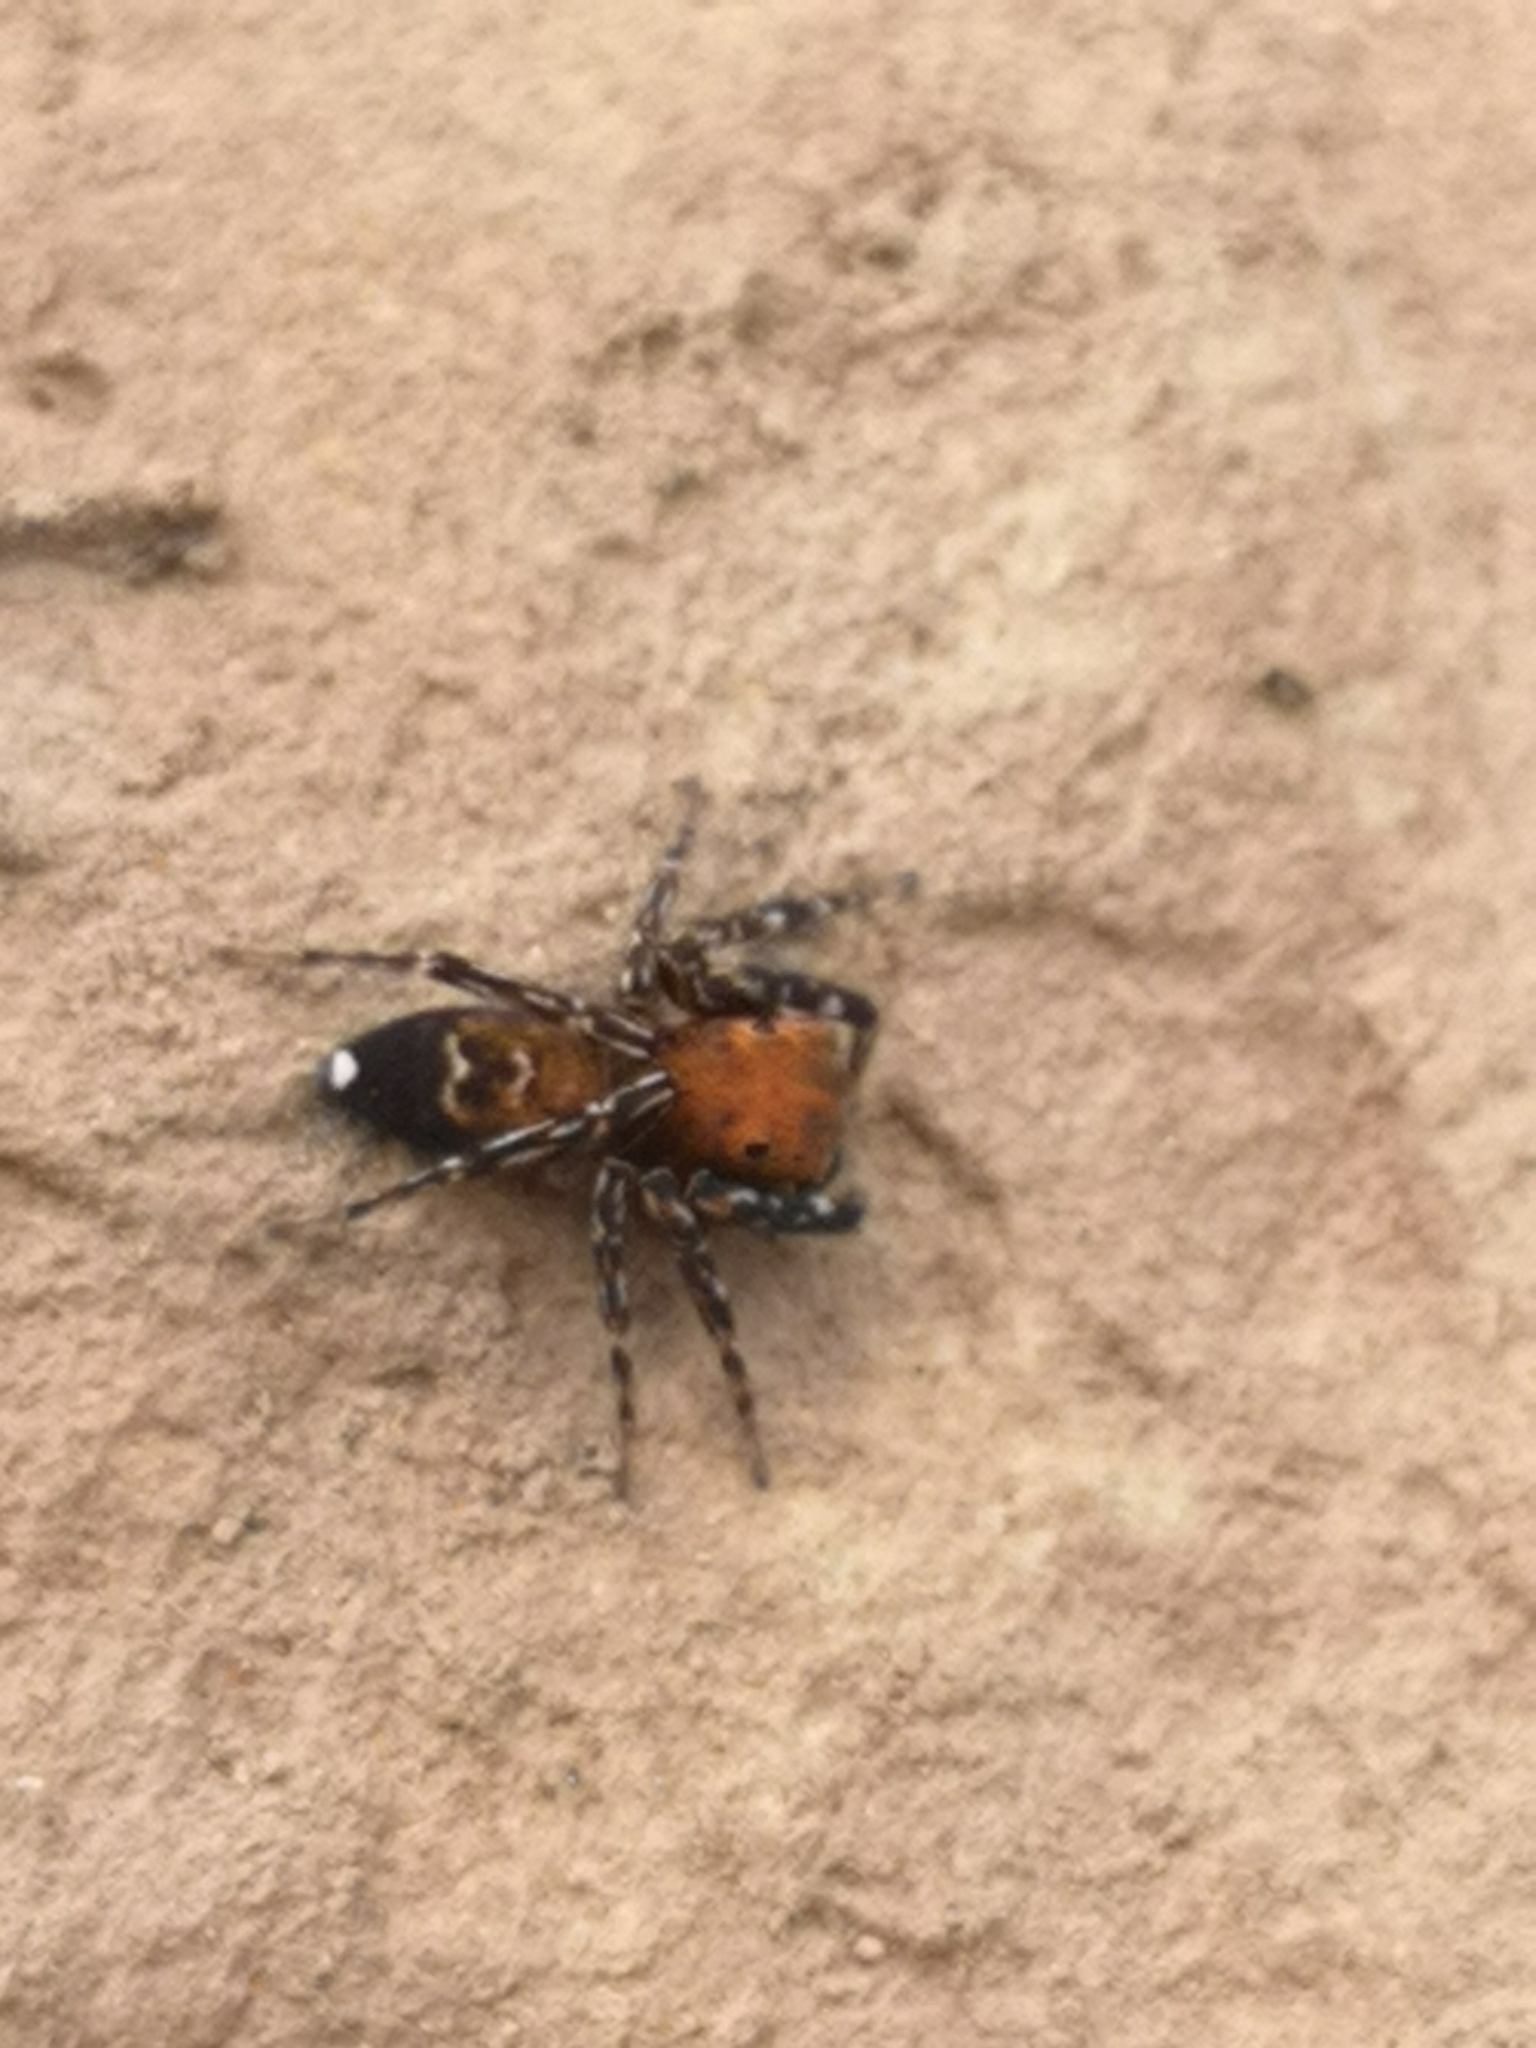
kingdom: Animalia
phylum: Arthropoda
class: Arachnida
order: Araneae
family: Salticidae
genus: Cyrba
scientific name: Cyrba algerina
